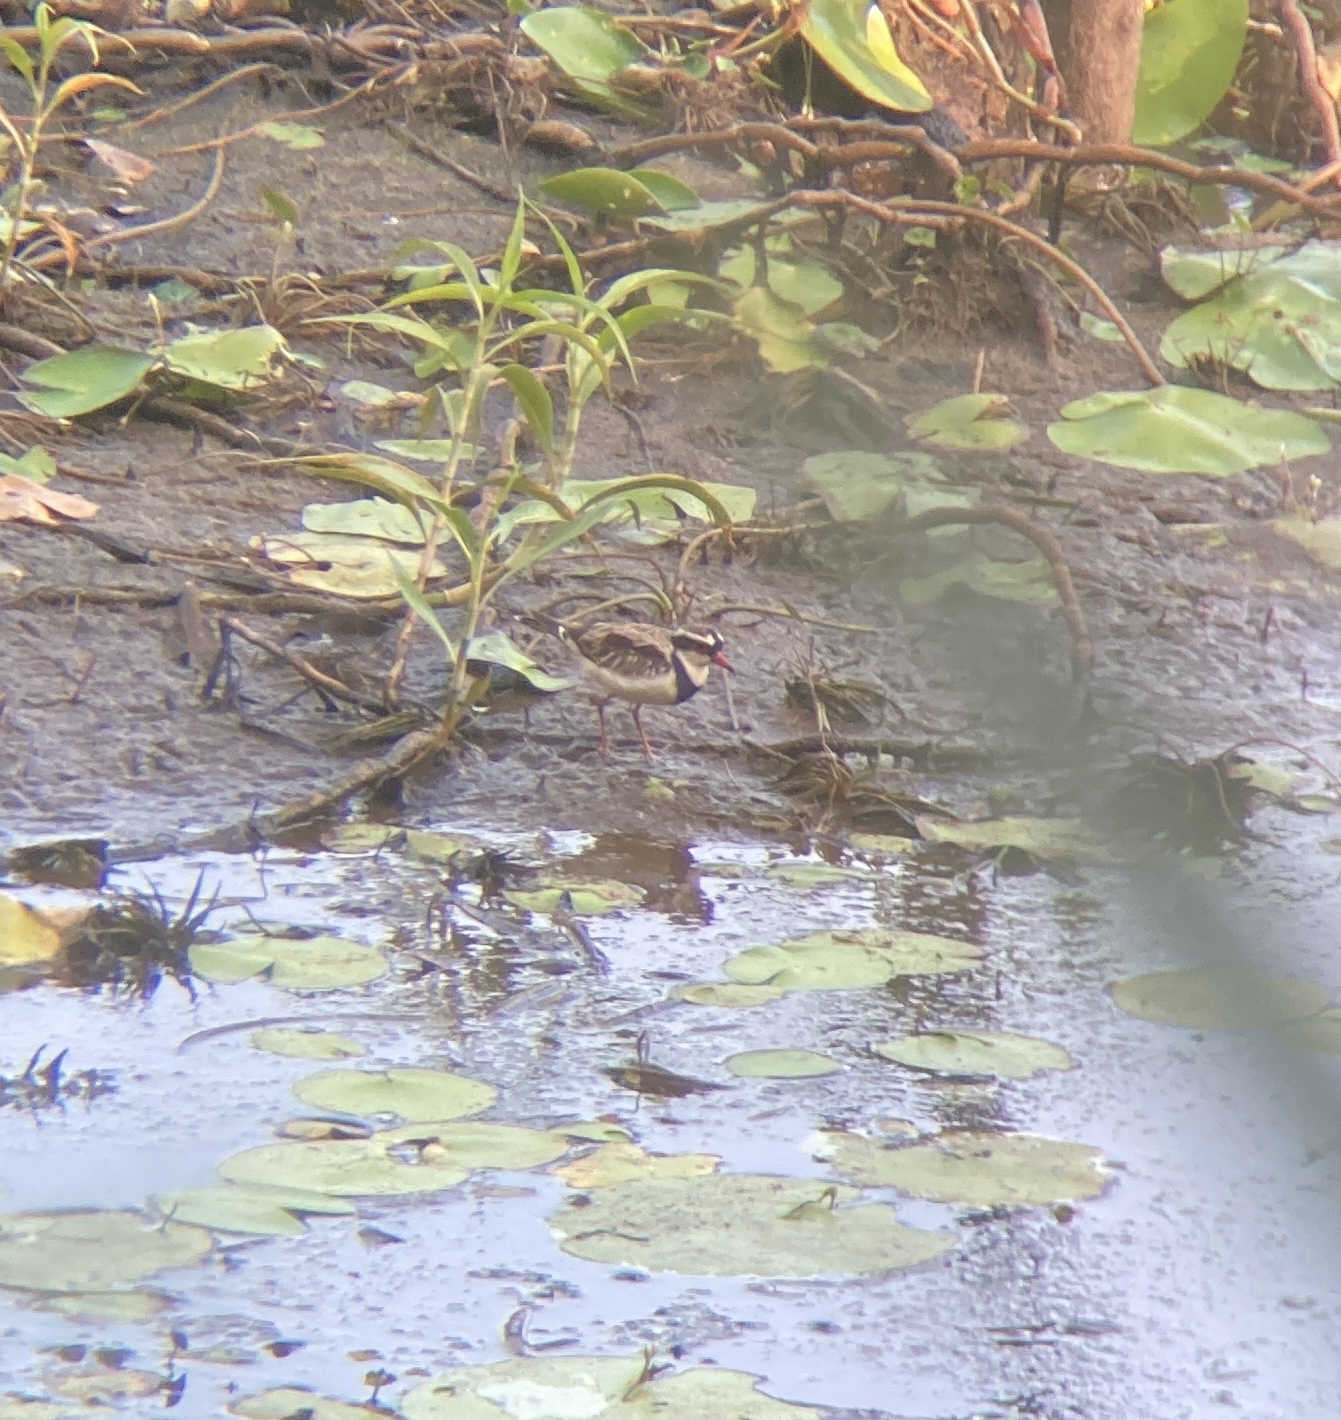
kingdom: Animalia
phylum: Chordata
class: Aves
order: Charadriiformes
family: Charadriidae
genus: Elseyornis
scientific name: Elseyornis melanops
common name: Black-fronted dotterel
